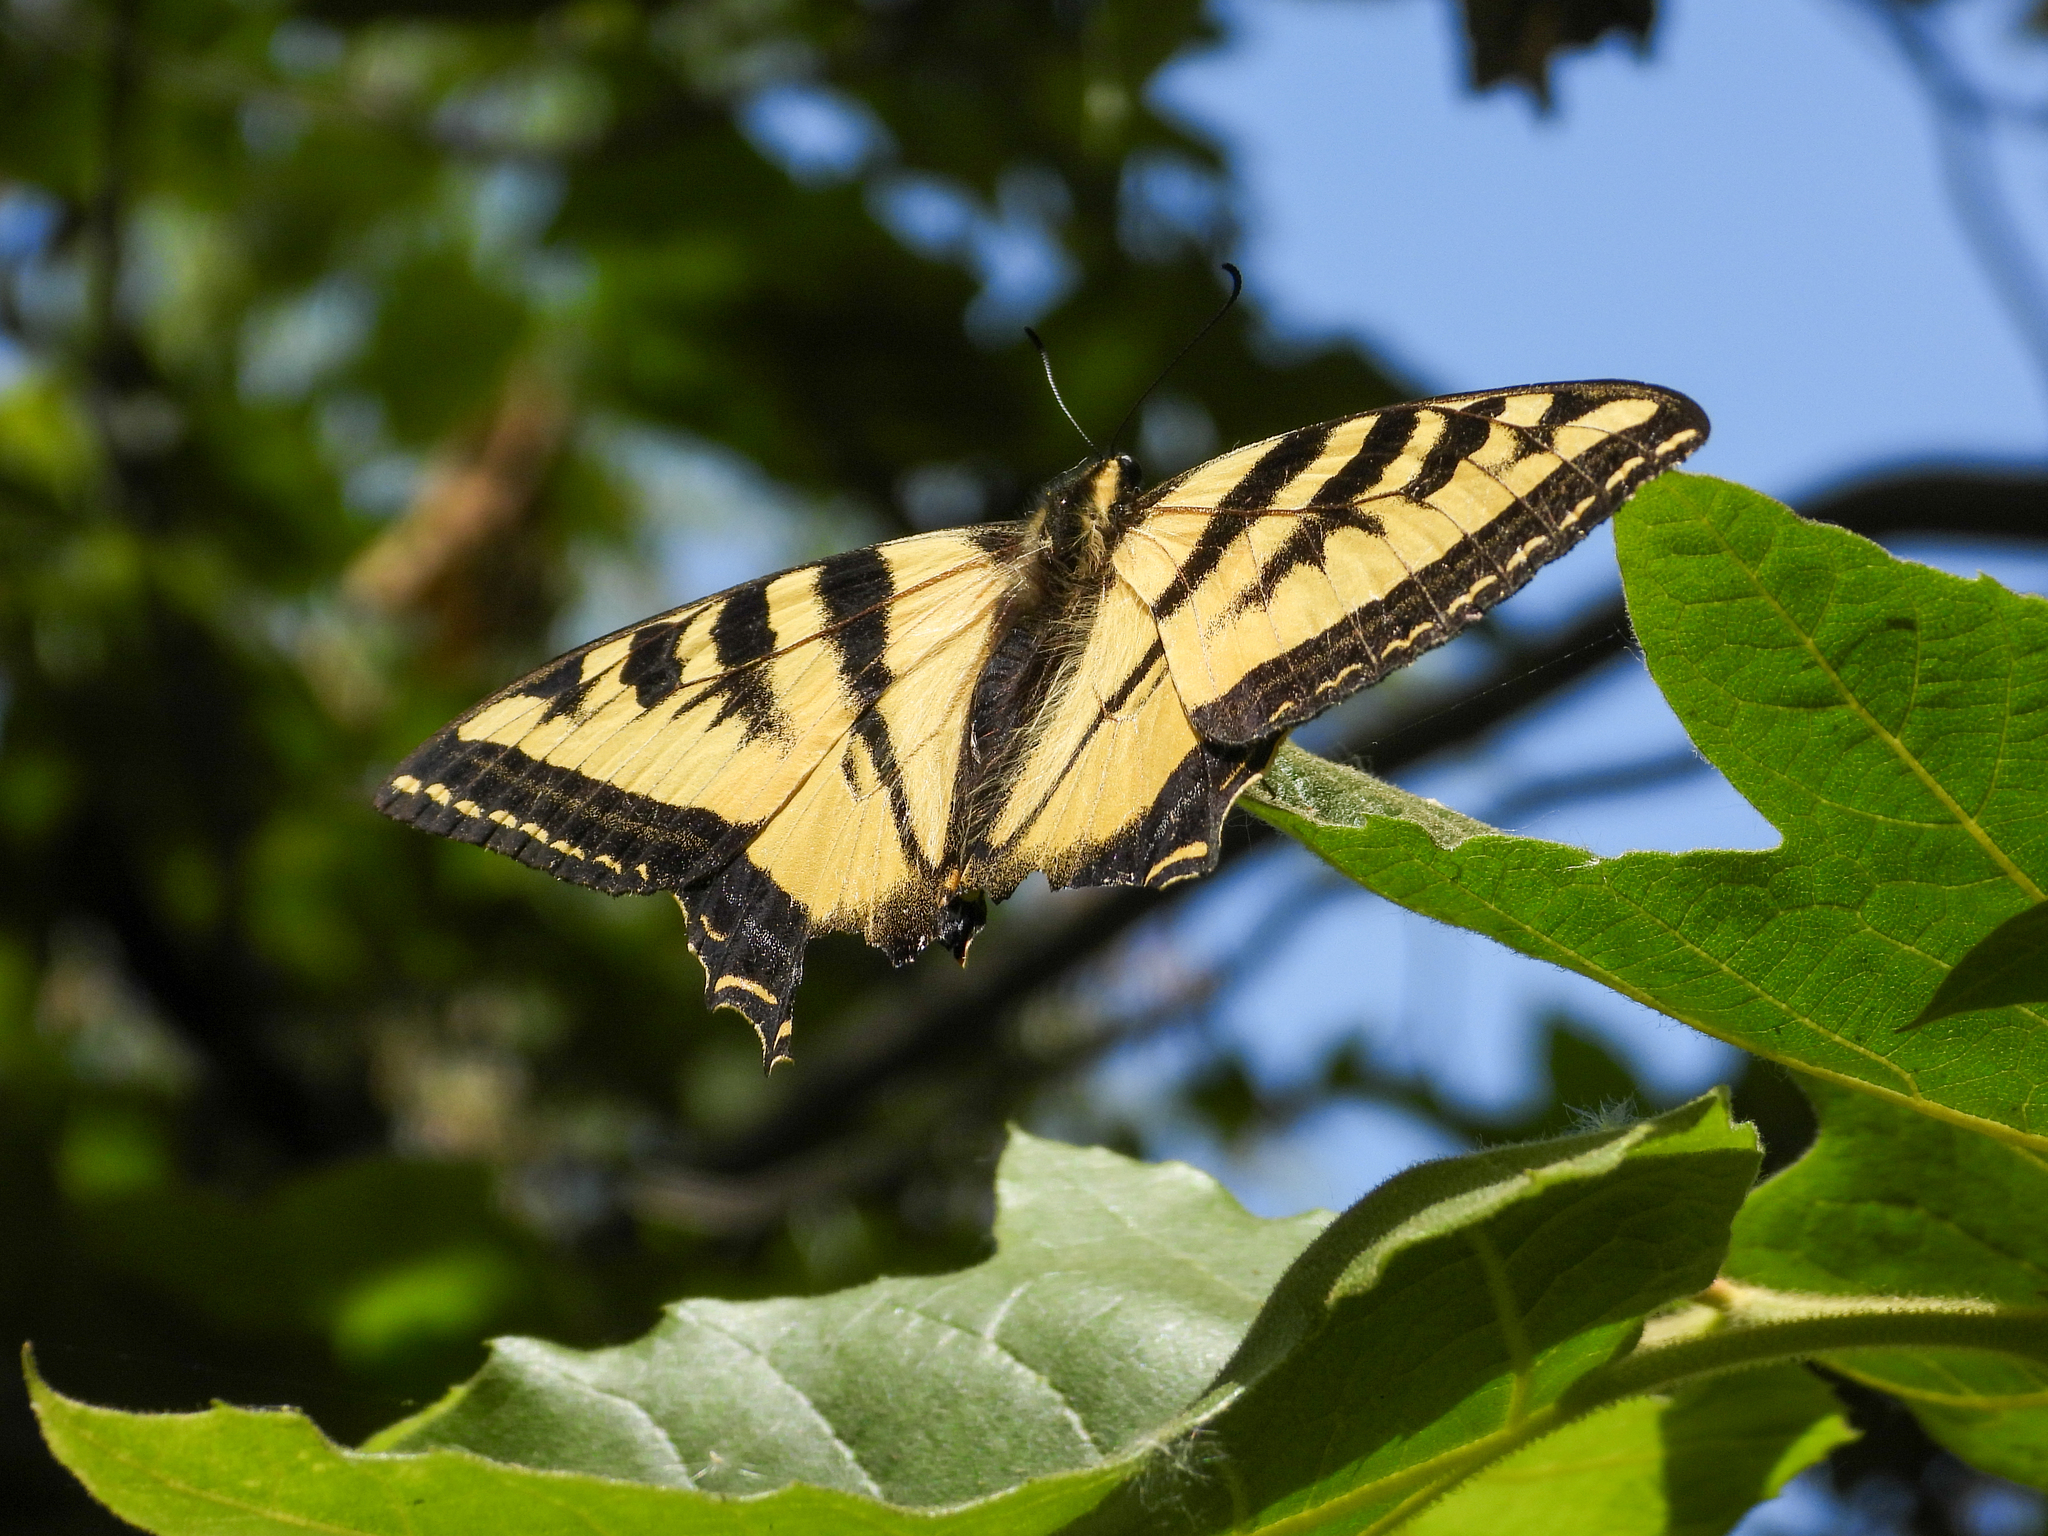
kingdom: Animalia
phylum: Arthropoda
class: Insecta
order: Lepidoptera
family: Papilionidae
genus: Papilio
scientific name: Papilio rutulus
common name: Western tiger swallowtail
